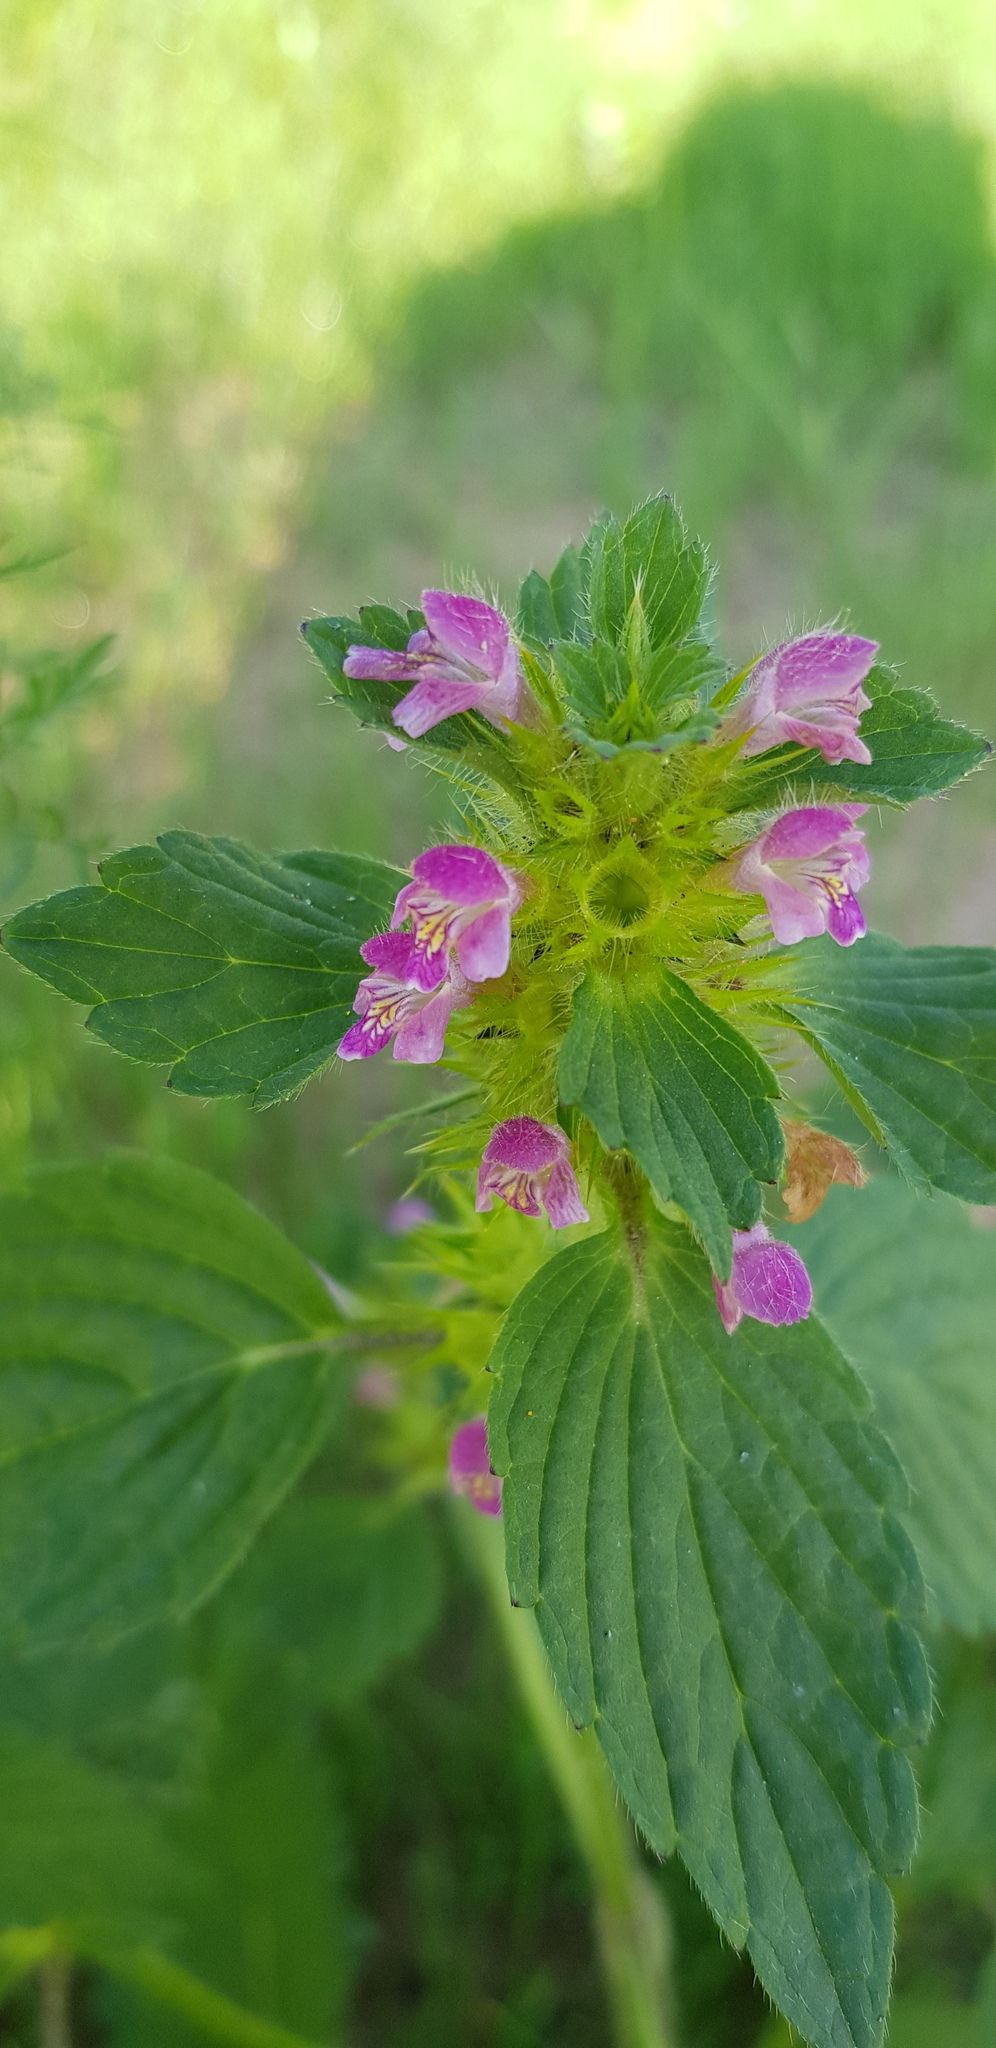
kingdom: Plantae
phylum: Tracheophyta
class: Magnoliopsida
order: Lamiales
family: Lamiaceae
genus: Galeopsis
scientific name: Galeopsis bifida
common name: Bifid hemp-nettle
